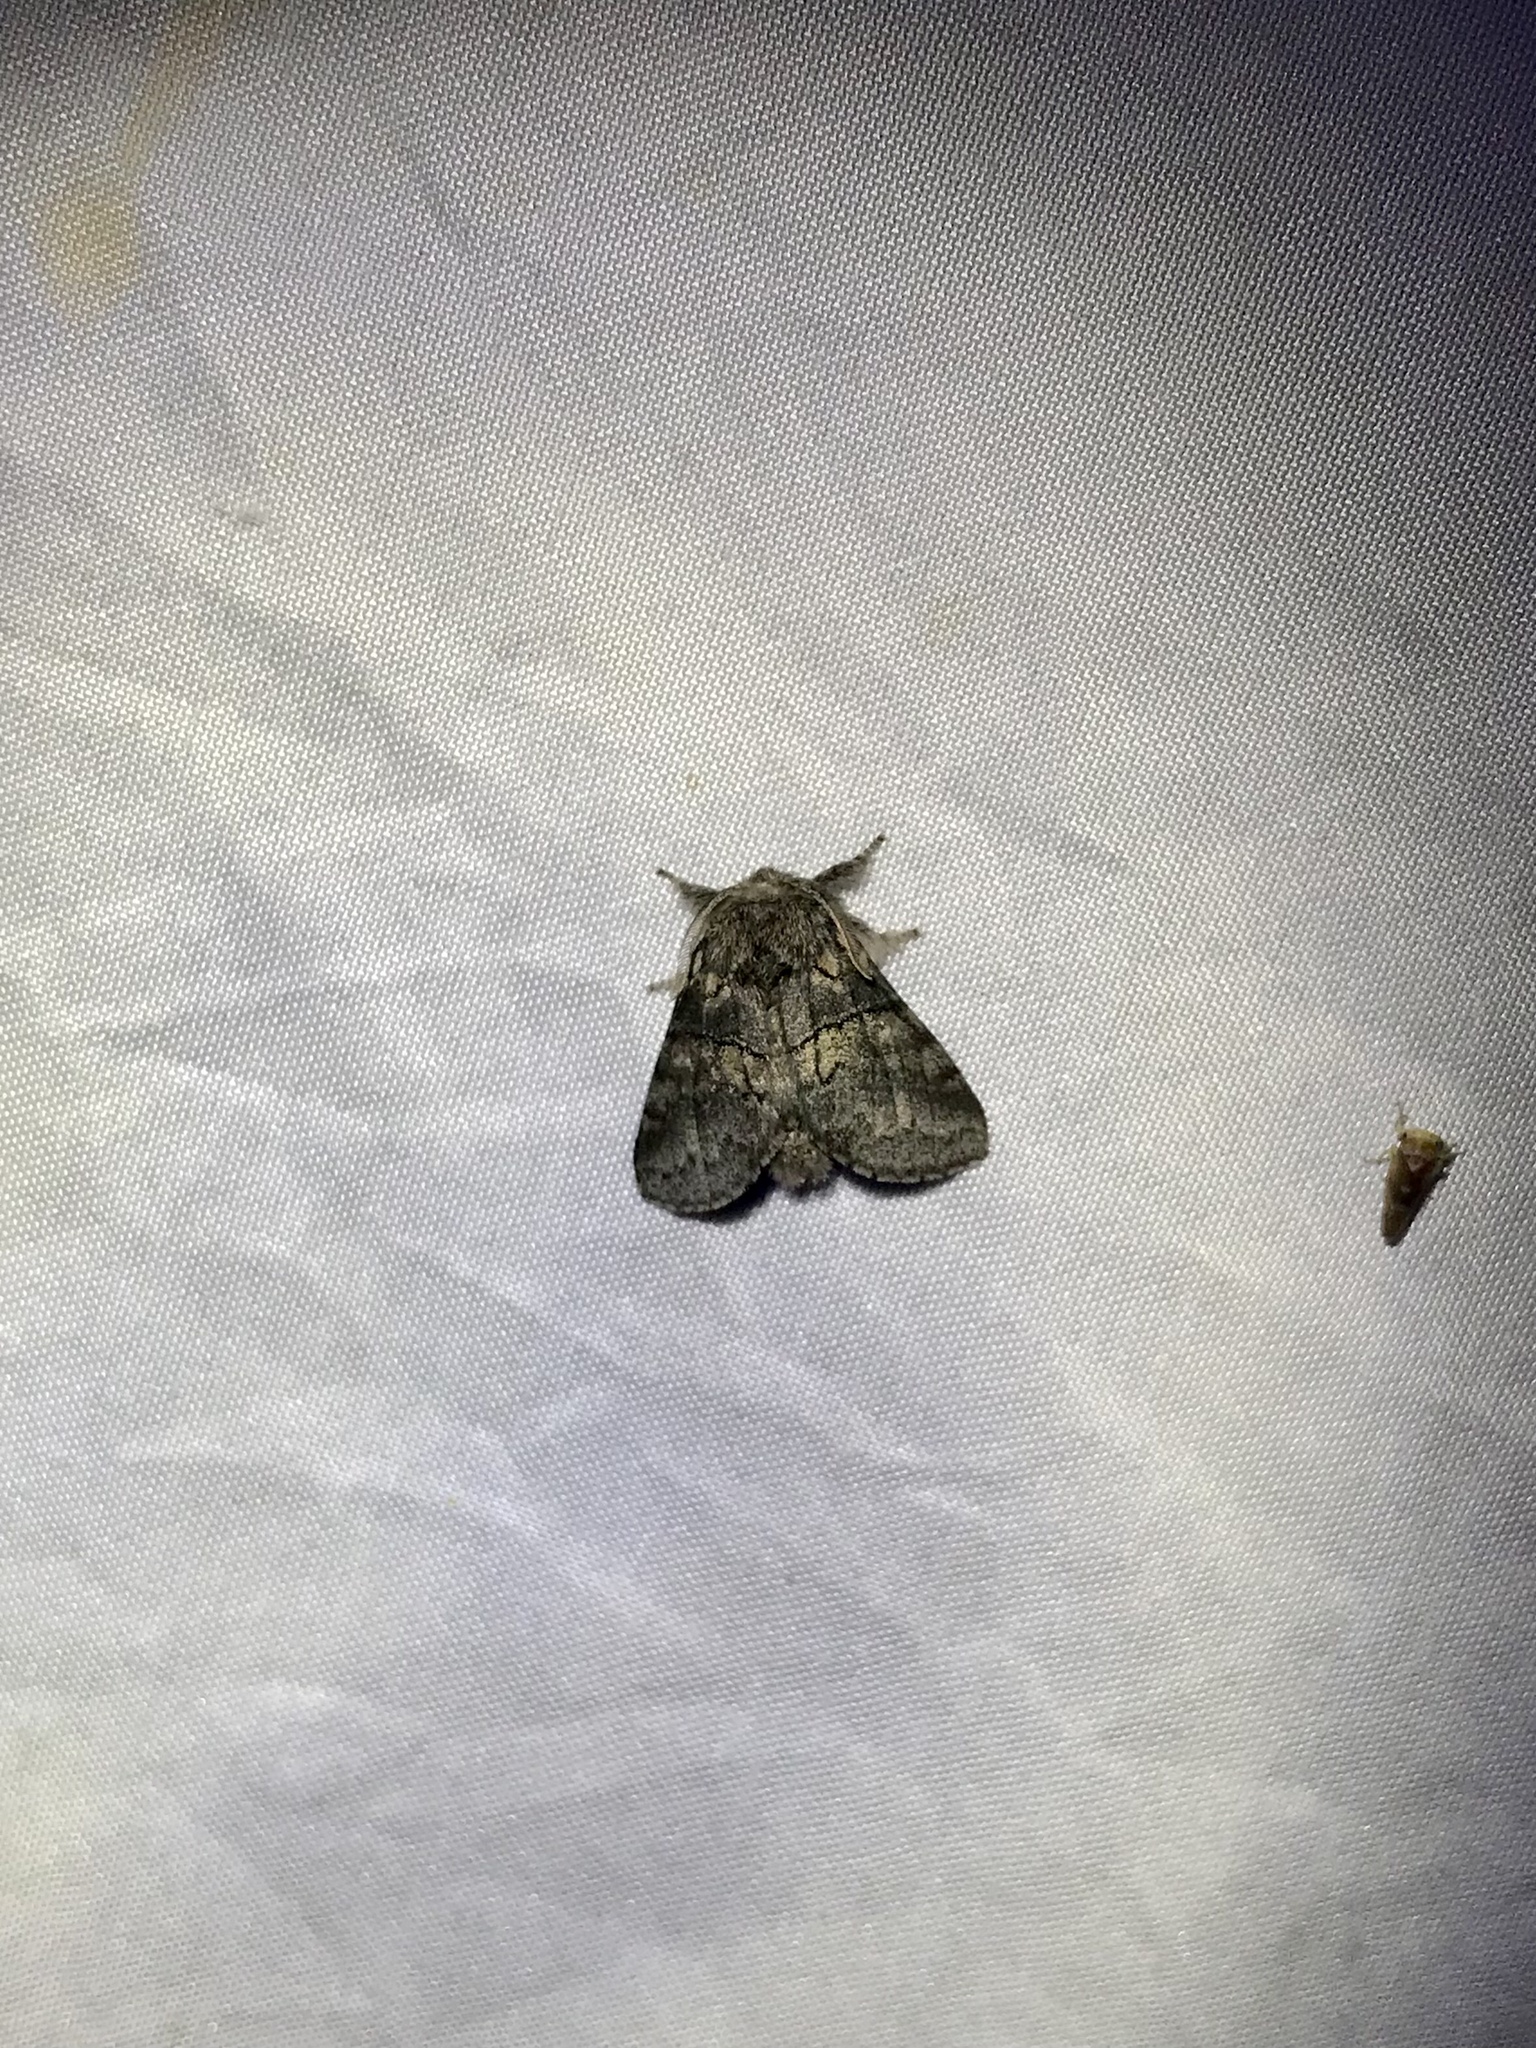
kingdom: Animalia
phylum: Arthropoda
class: Insecta
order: Lepidoptera
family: Notodontidae
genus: Gluphisia
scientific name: Gluphisia septentrionis
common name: Common gluphisia
